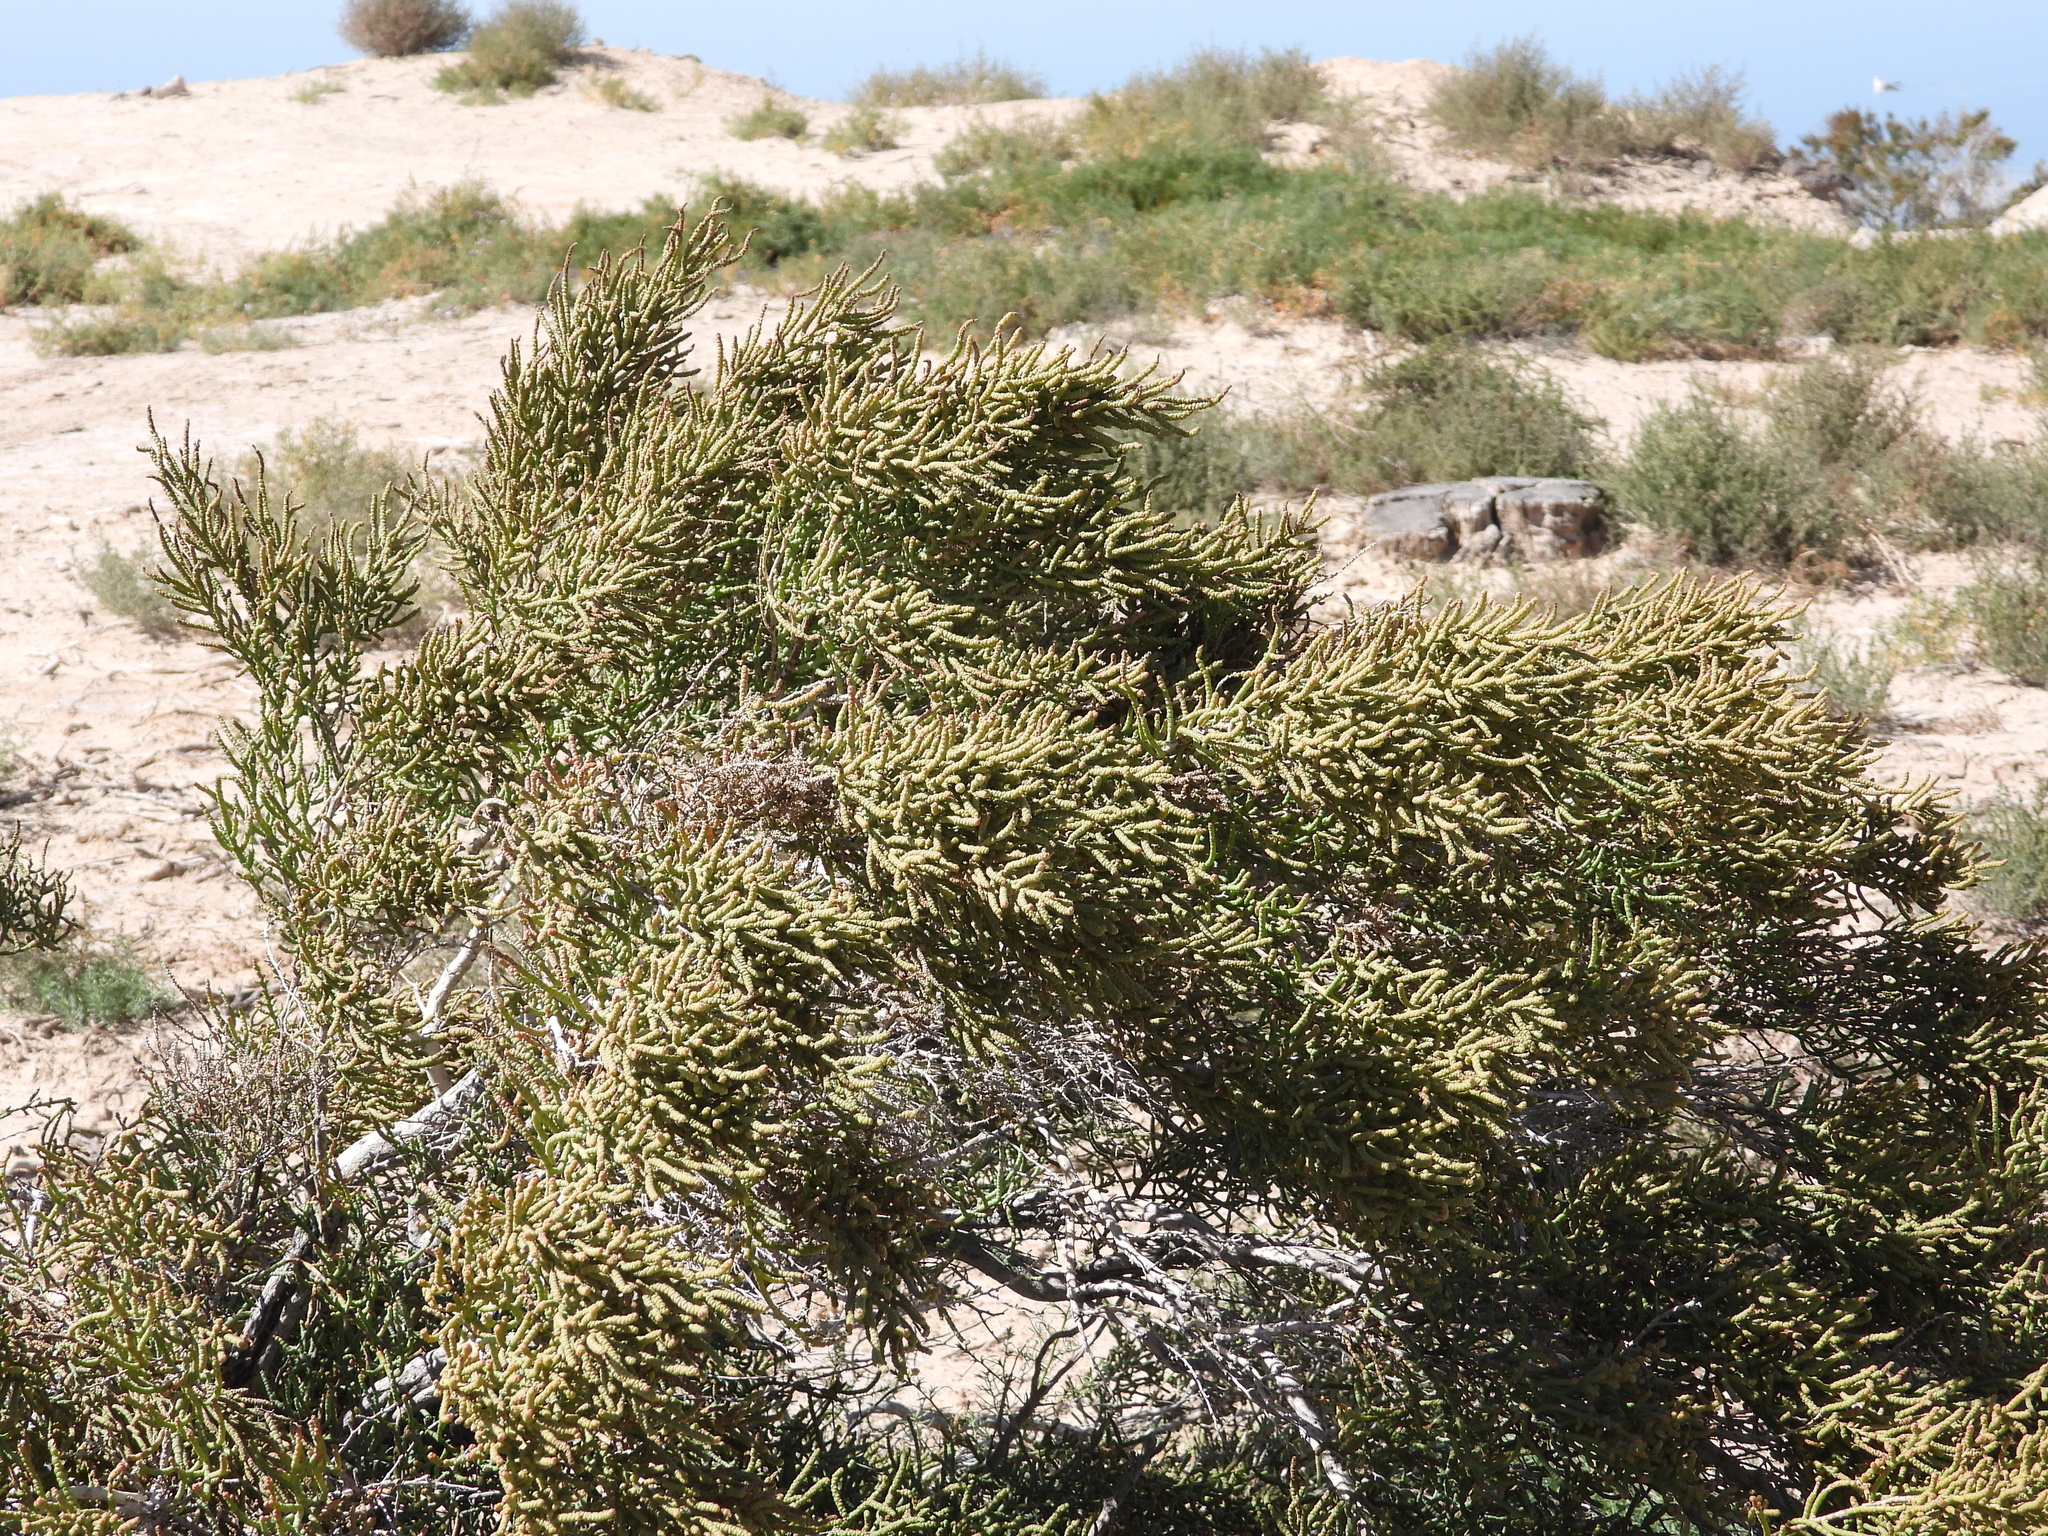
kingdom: Plantae
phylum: Tracheophyta
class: Magnoliopsida
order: Caryophyllales
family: Amaranthaceae
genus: Allenrolfea
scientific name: Allenrolfea occidentalis
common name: Iodine-bush
